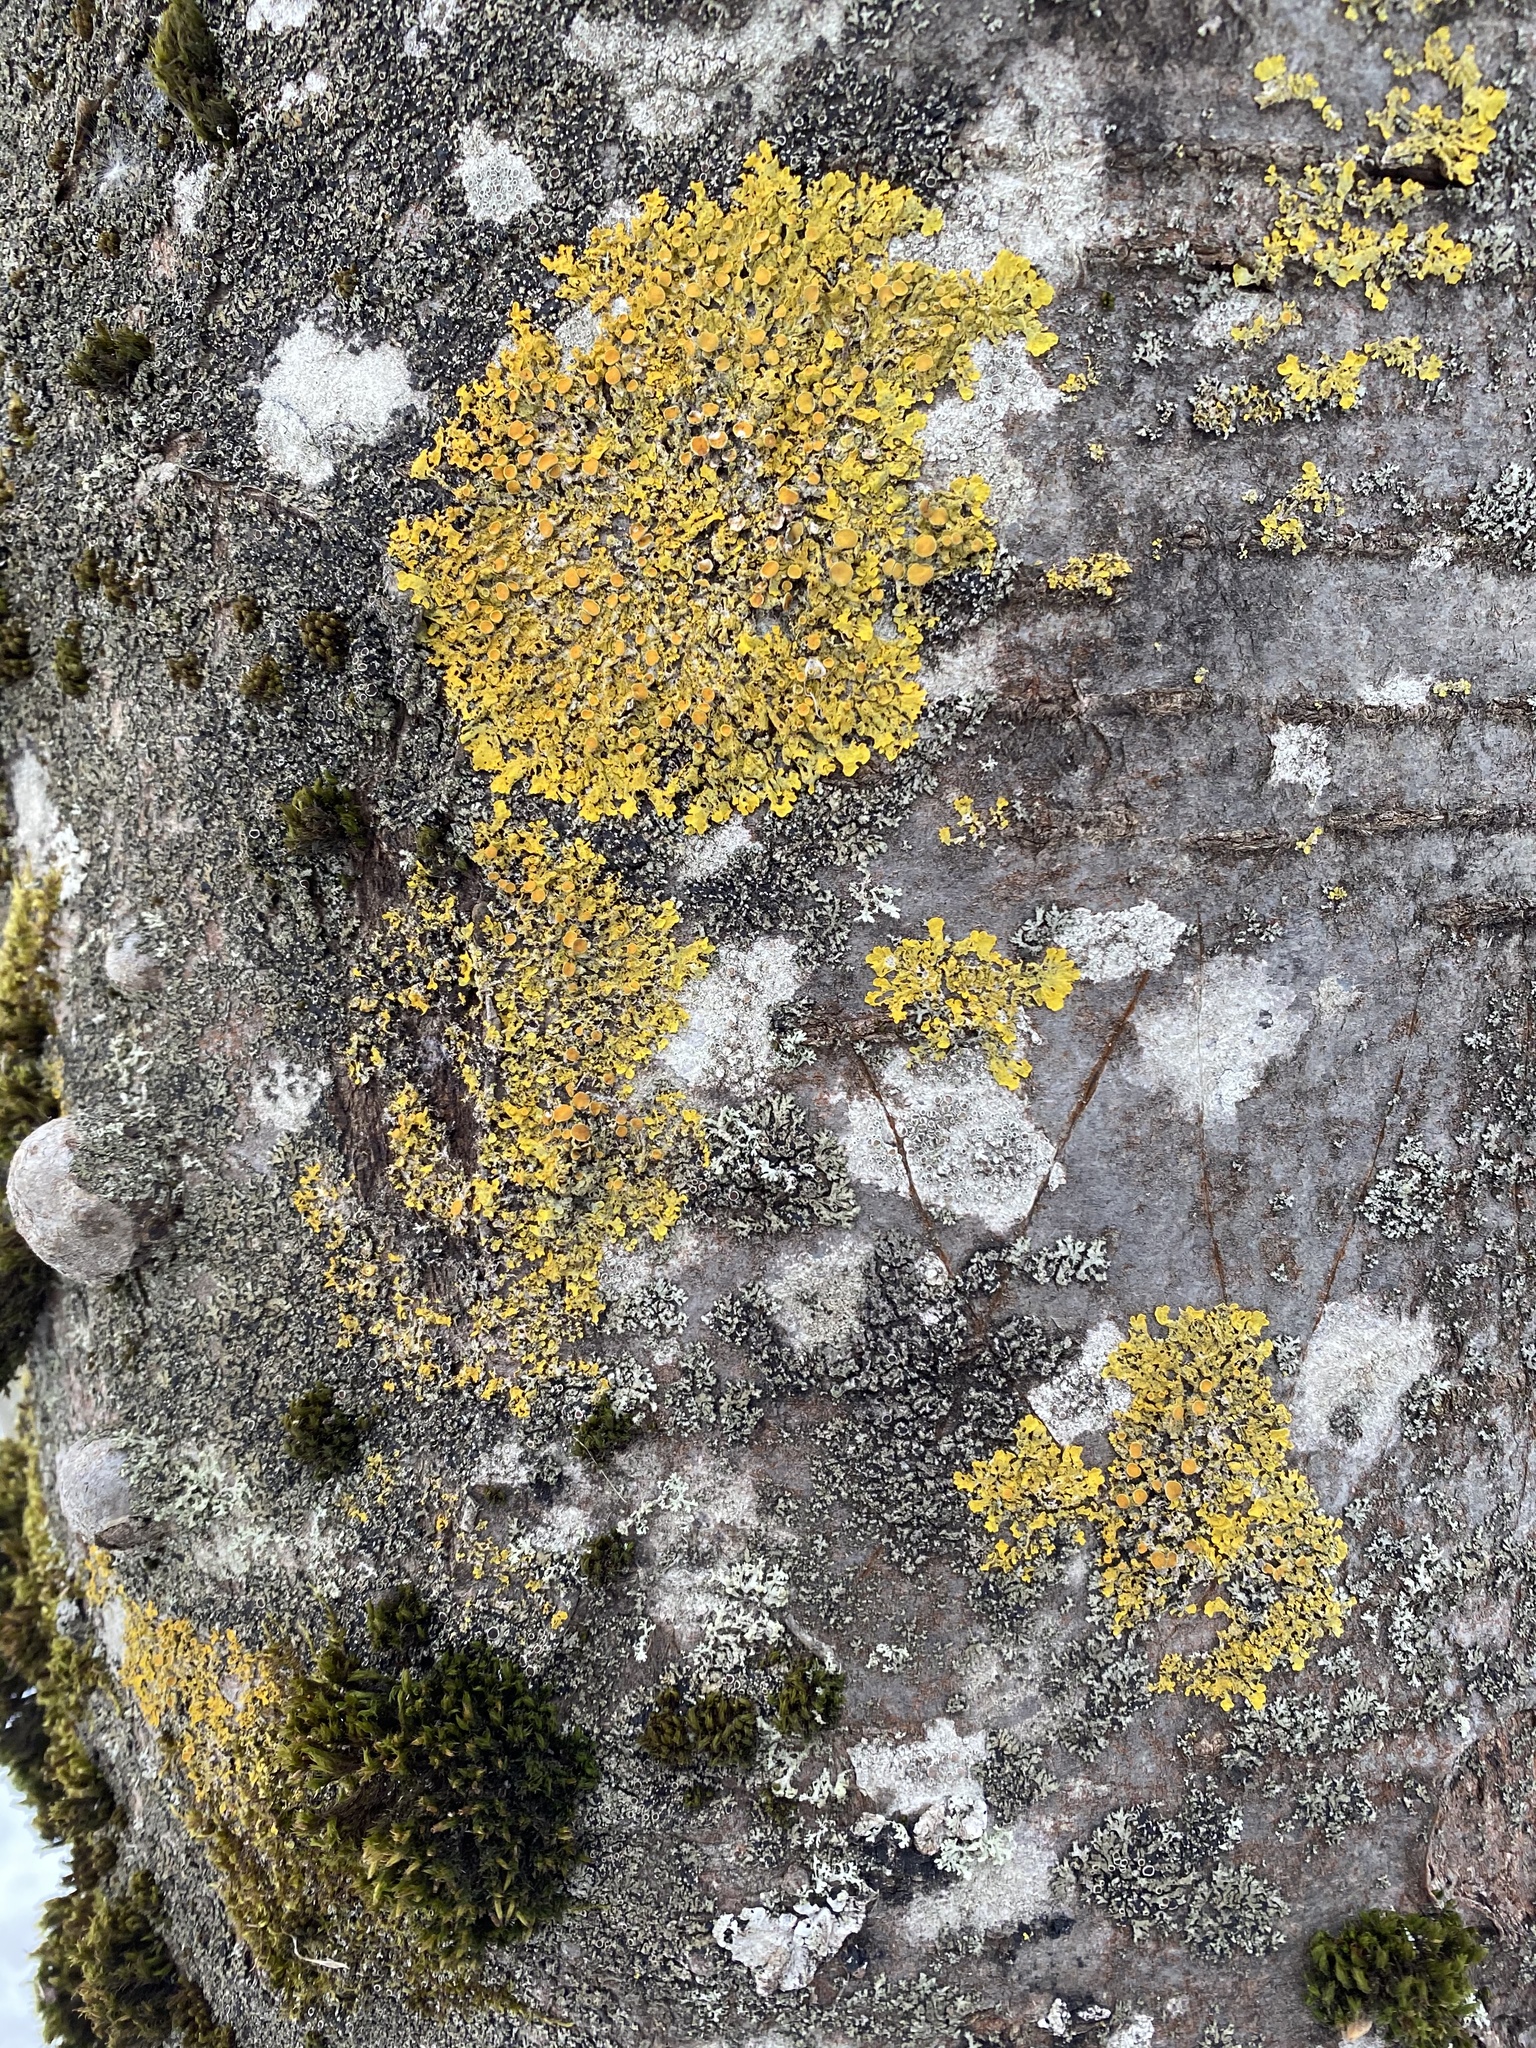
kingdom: Fungi
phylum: Ascomycota
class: Lecanoromycetes
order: Teloschistales
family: Teloschistaceae
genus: Xanthoria
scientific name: Xanthoria parietina
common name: Common orange lichen
